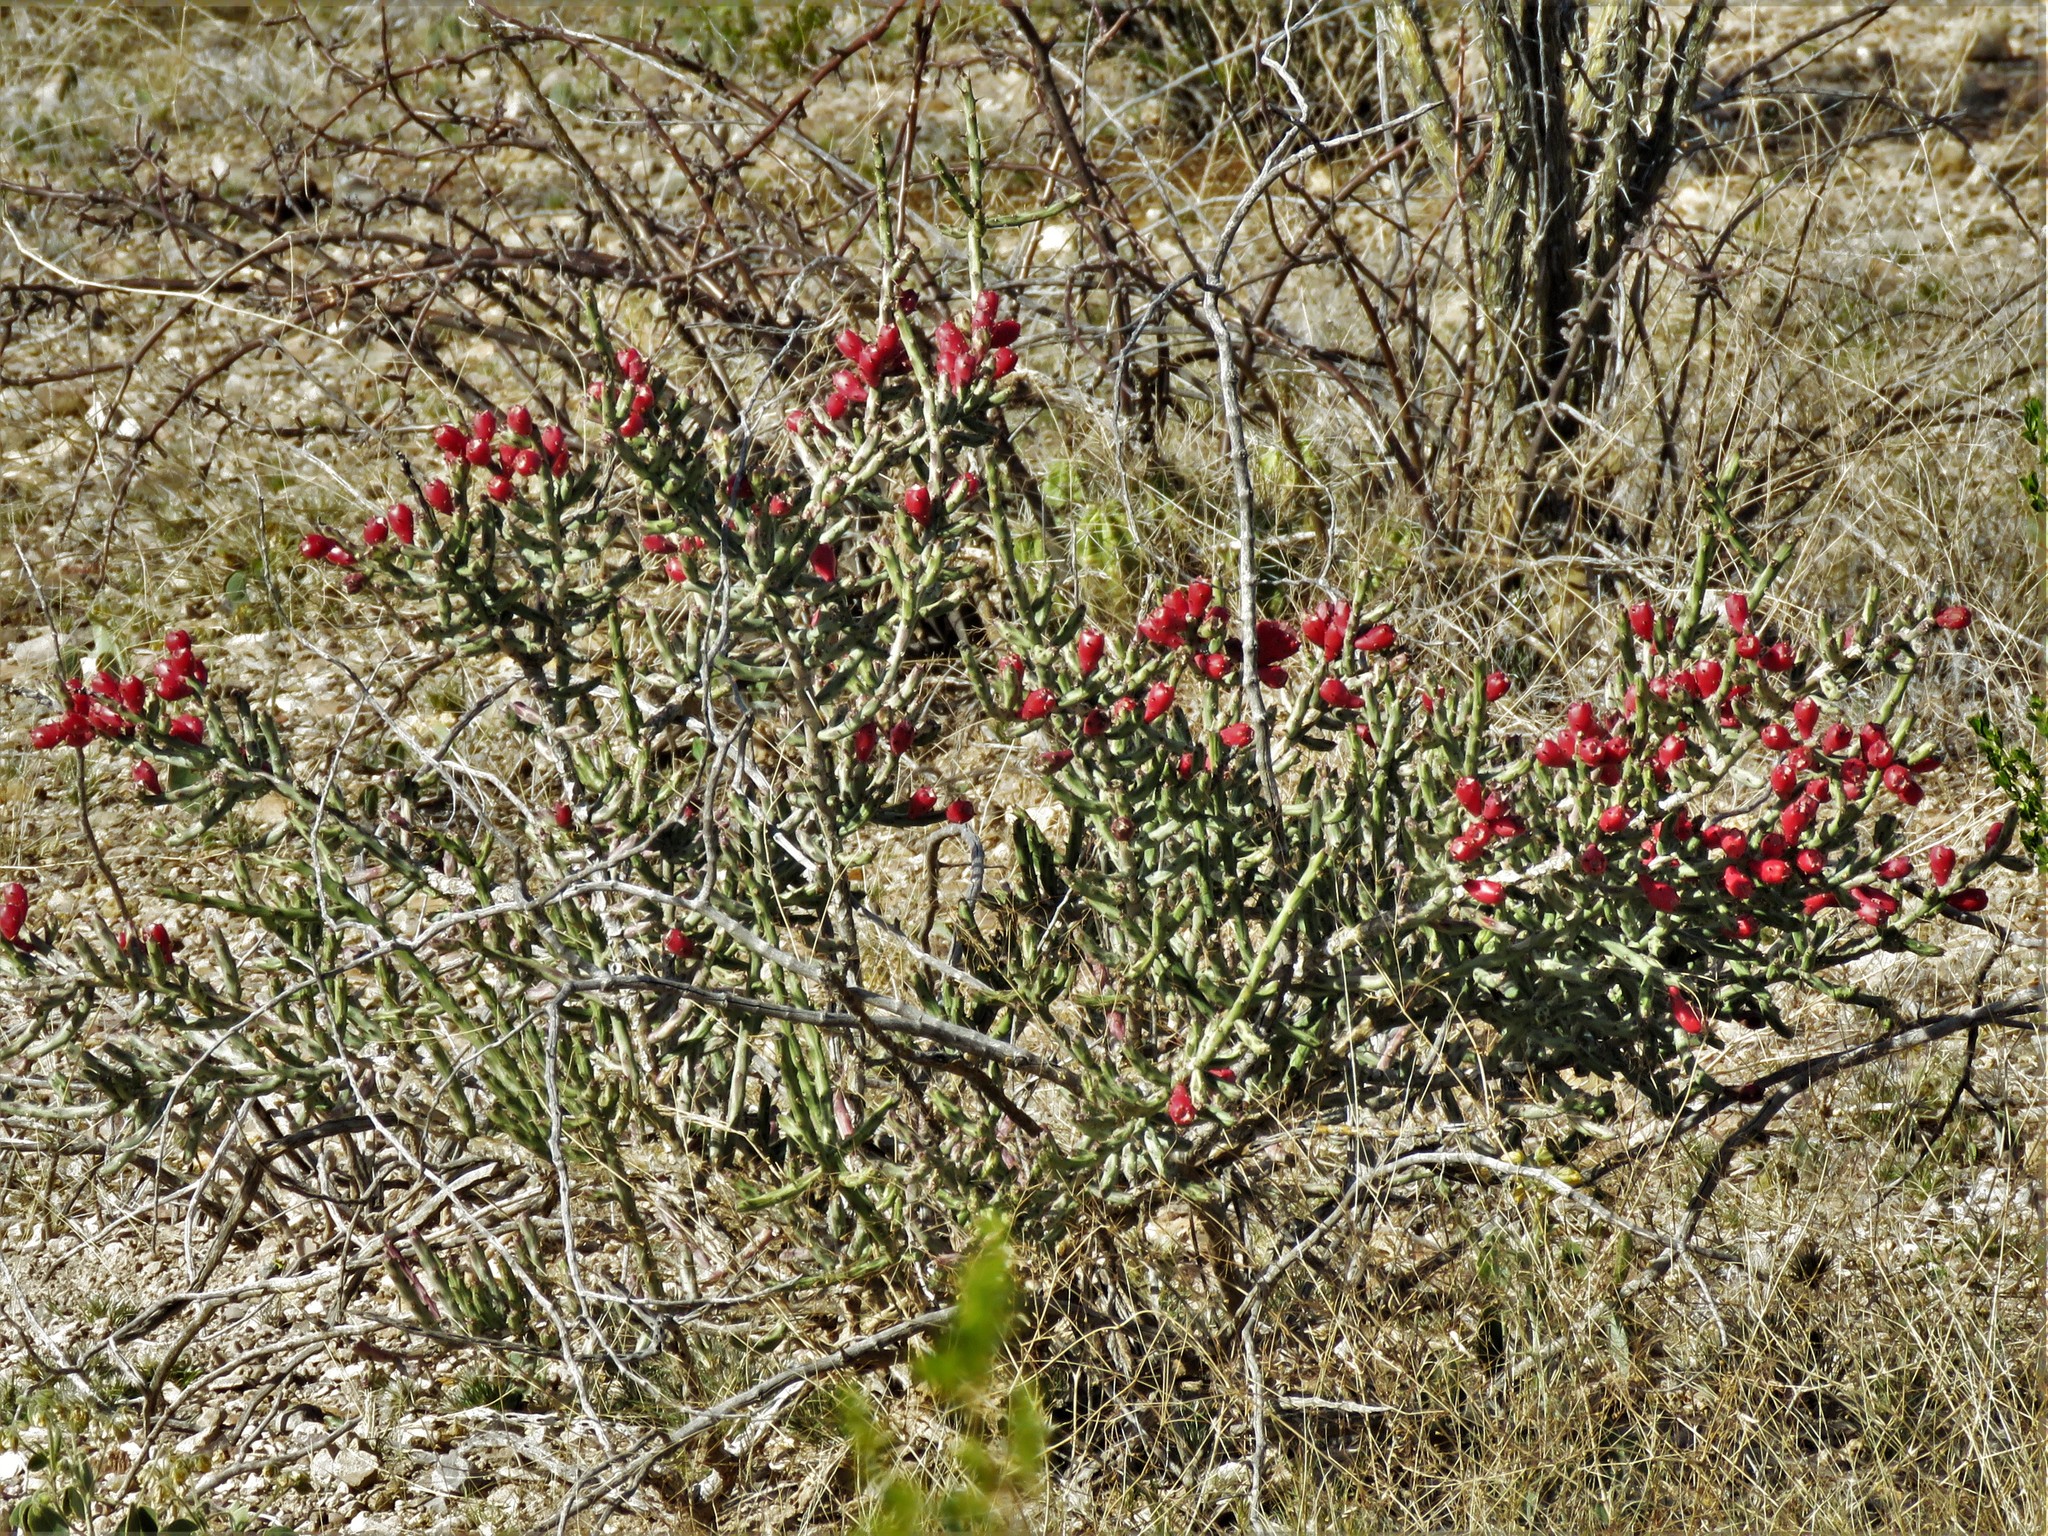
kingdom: Plantae
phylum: Tracheophyta
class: Magnoliopsida
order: Caryophyllales
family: Cactaceae
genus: Cylindropuntia
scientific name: Cylindropuntia leptocaulis
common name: Christmas cactus
